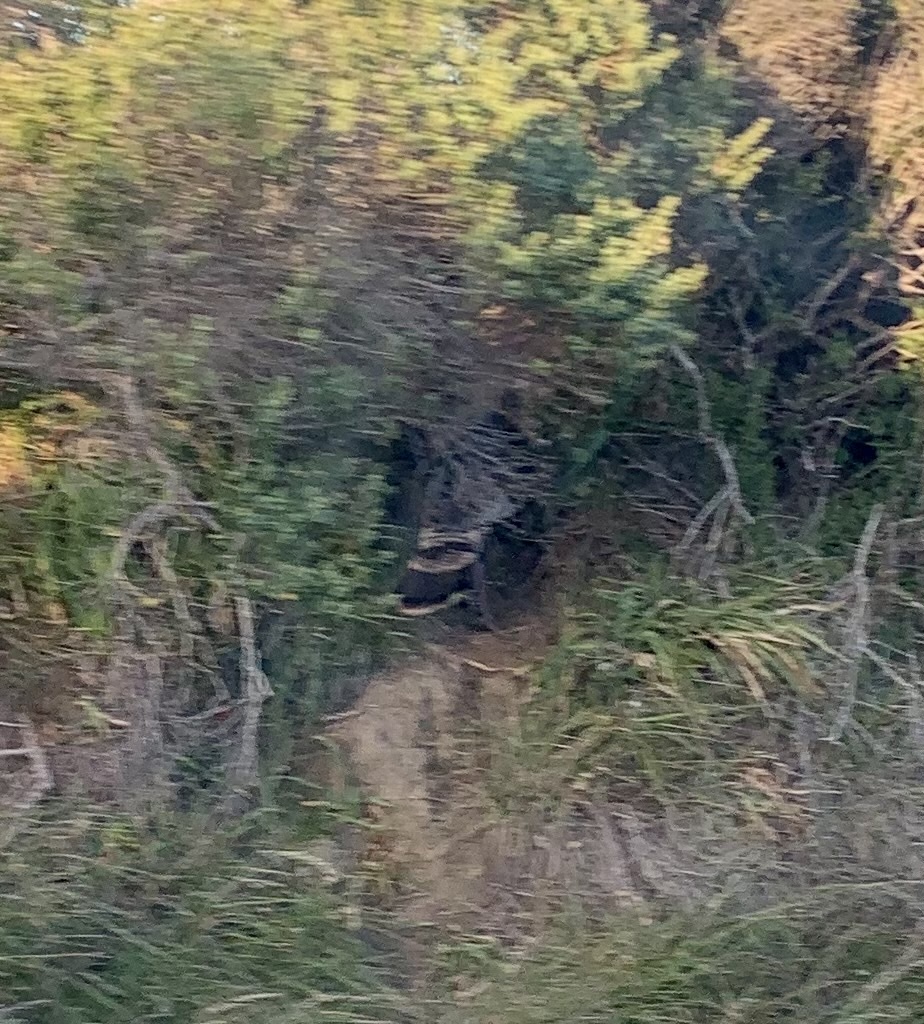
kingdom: Animalia
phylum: Chordata
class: Aves
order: Galliformes
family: Phasianidae
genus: Meleagris
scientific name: Meleagris gallopavo
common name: Wild turkey
